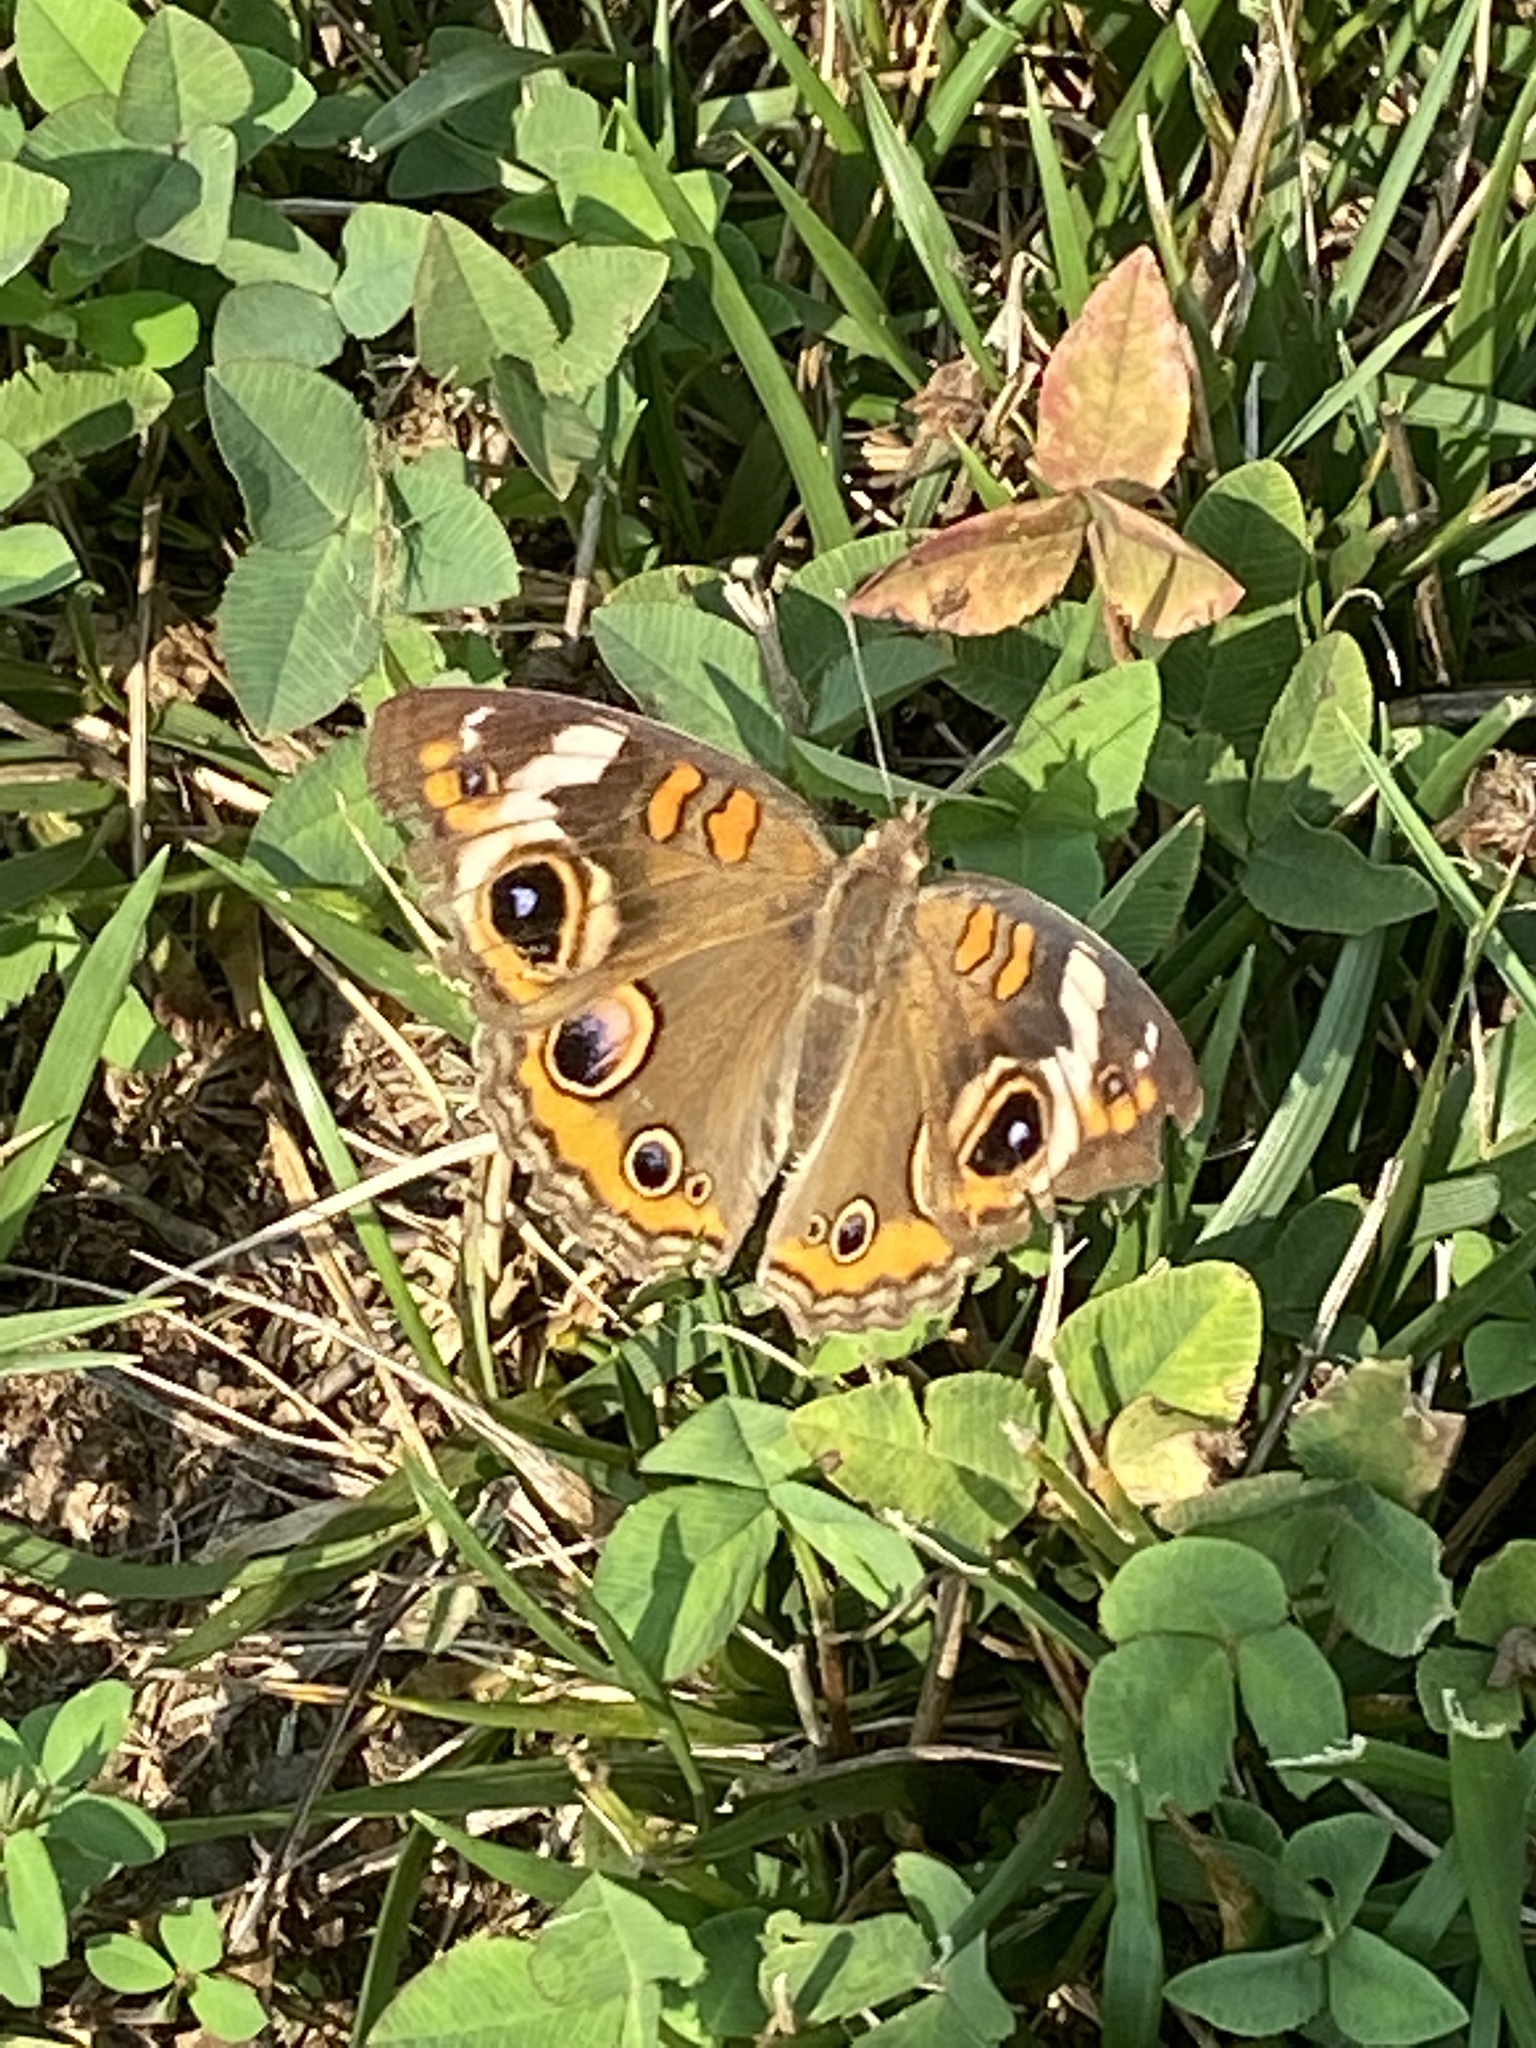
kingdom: Animalia
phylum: Arthropoda
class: Insecta
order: Lepidoptera
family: Nymphalidae
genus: Junonia
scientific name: Junonia coenia
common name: Common buckeye
